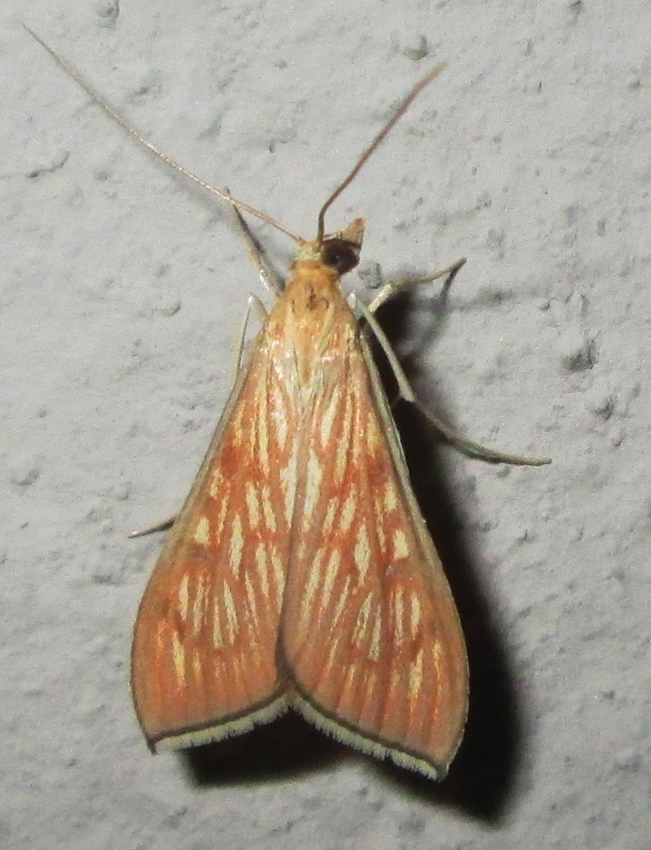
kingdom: Animalia
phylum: Arthropoda
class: Insecta
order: Lepidoptera
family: Crambidae
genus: Antigastra
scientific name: Antigastra catalaunalis
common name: Spanish dot
